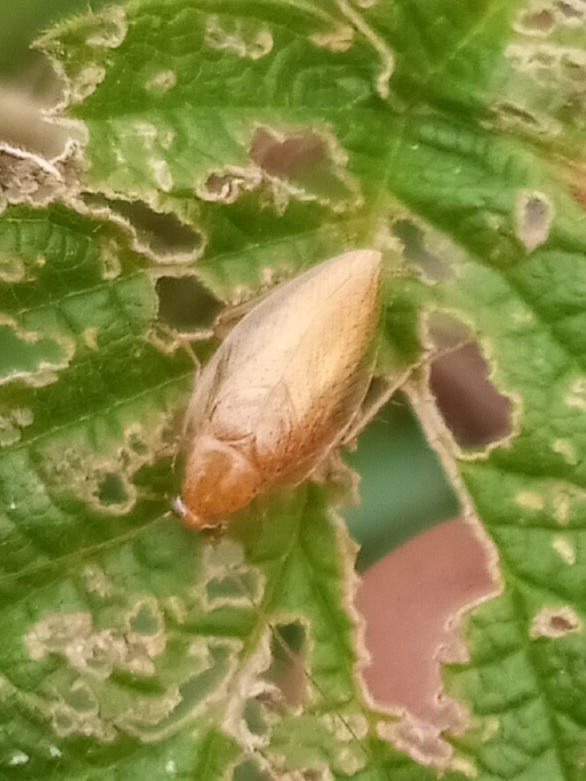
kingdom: Animalia
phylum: Arthropoda
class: Insecta
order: Blattodea
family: Ectobiidae
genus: Ectobius
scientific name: Ectobius pallidus
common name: Tawny cockroach
